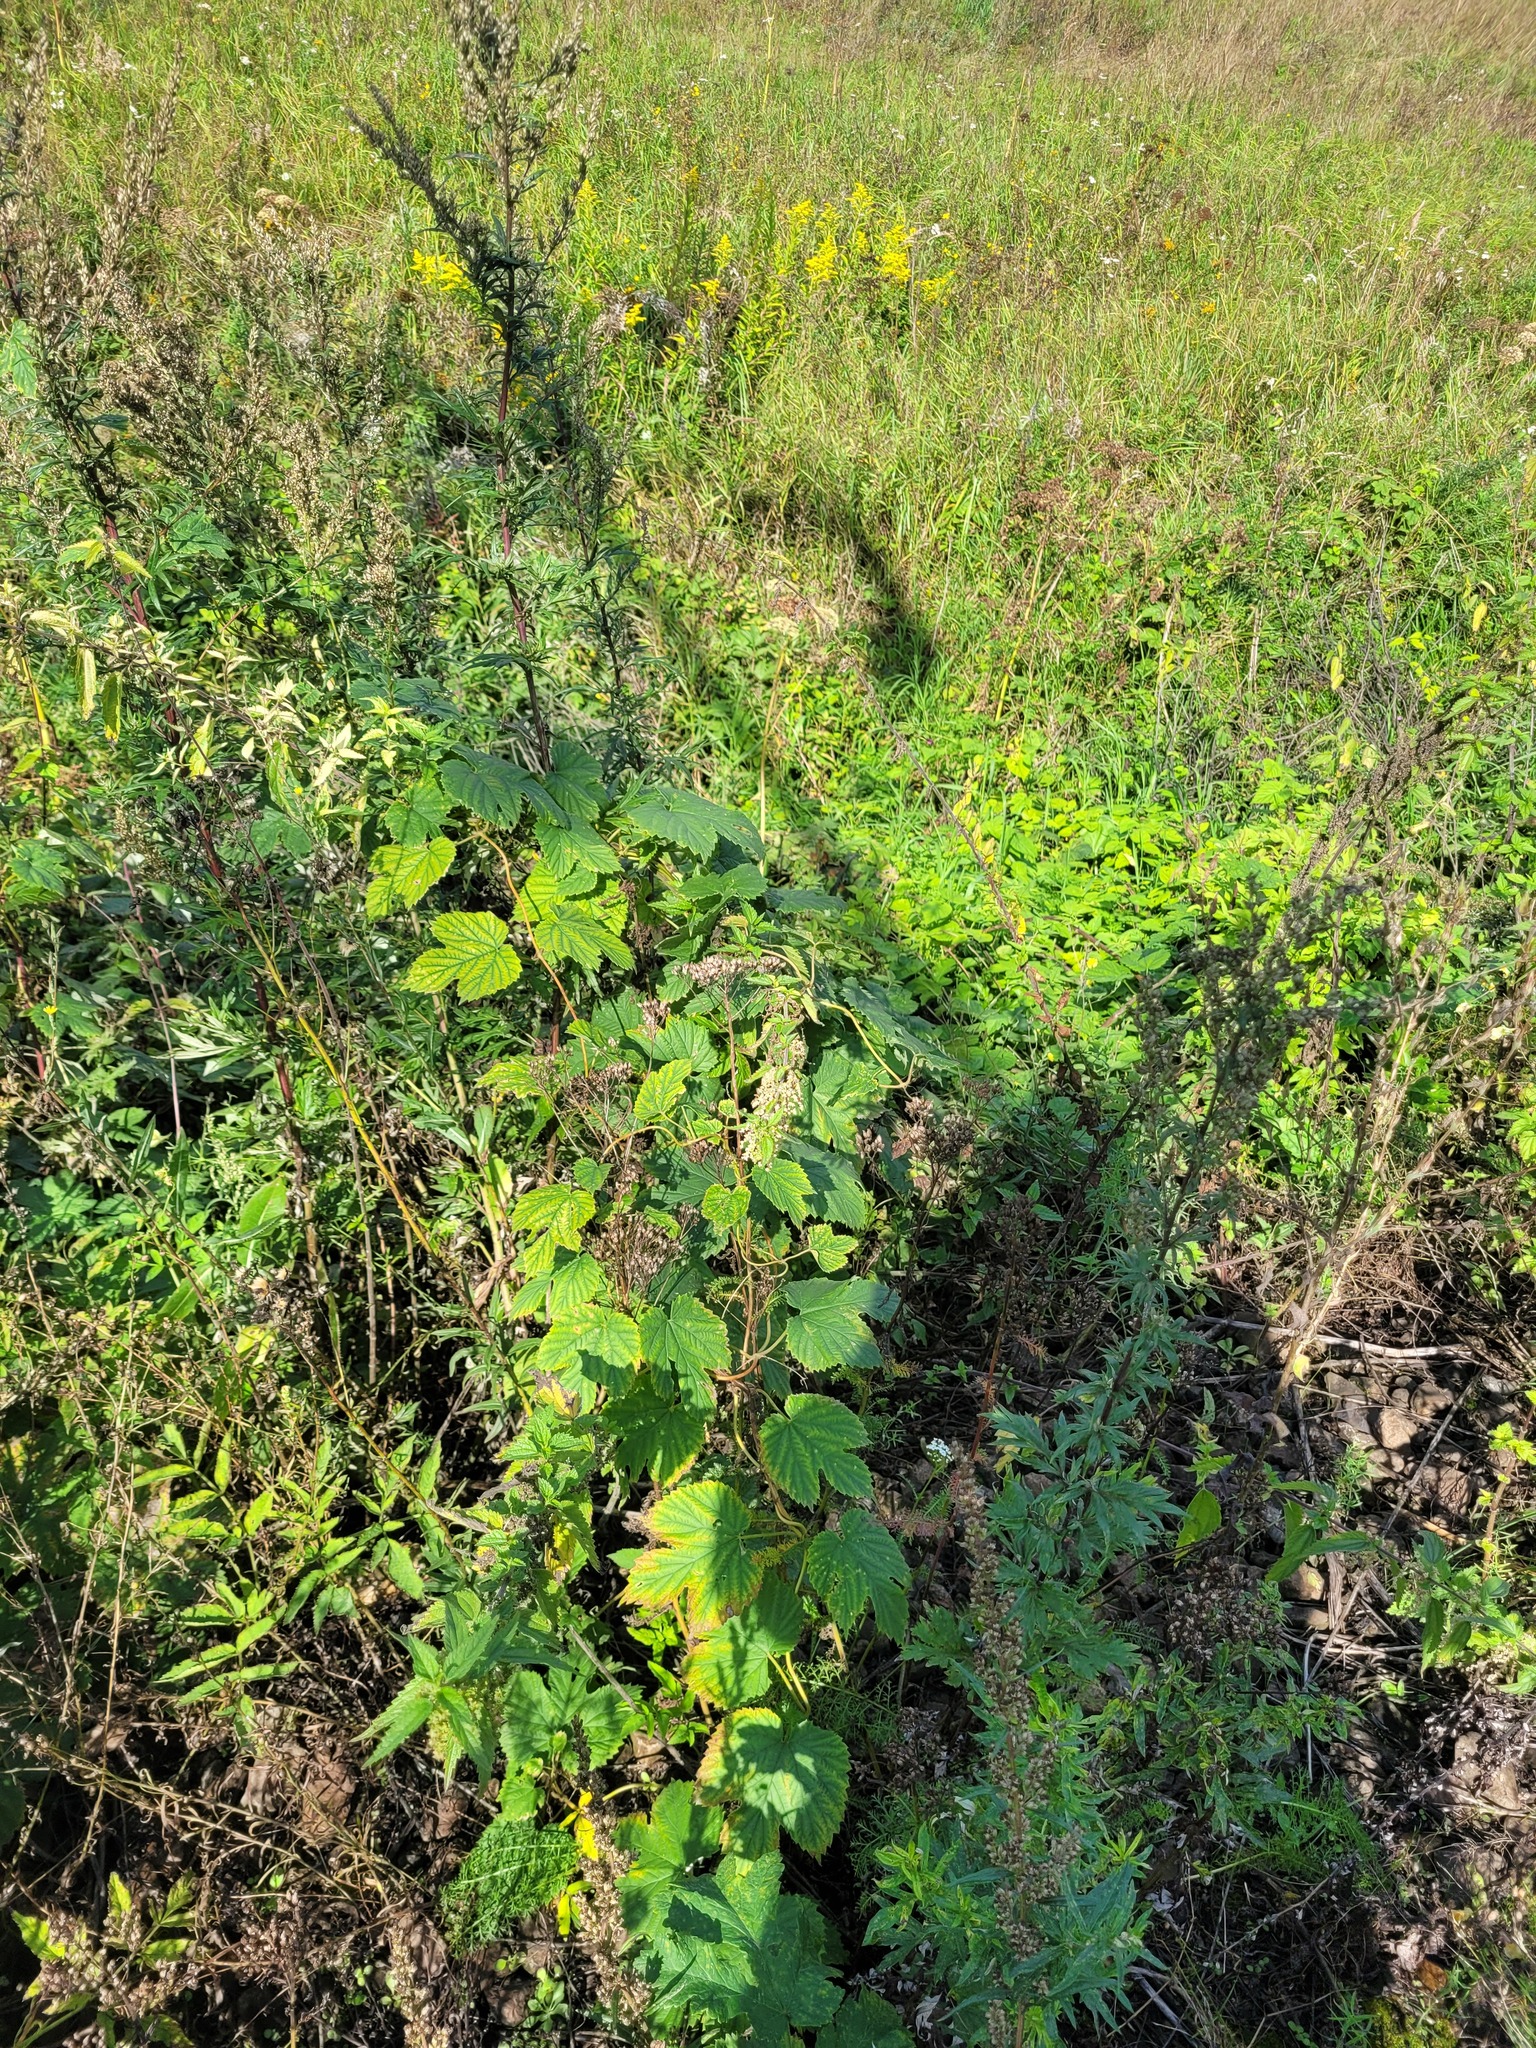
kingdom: Plantae
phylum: Tracheophyta
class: Magnoliopsida
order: Rosales
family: Cannabaceae
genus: Humulus
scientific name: Humulus lupulus
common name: Hop
